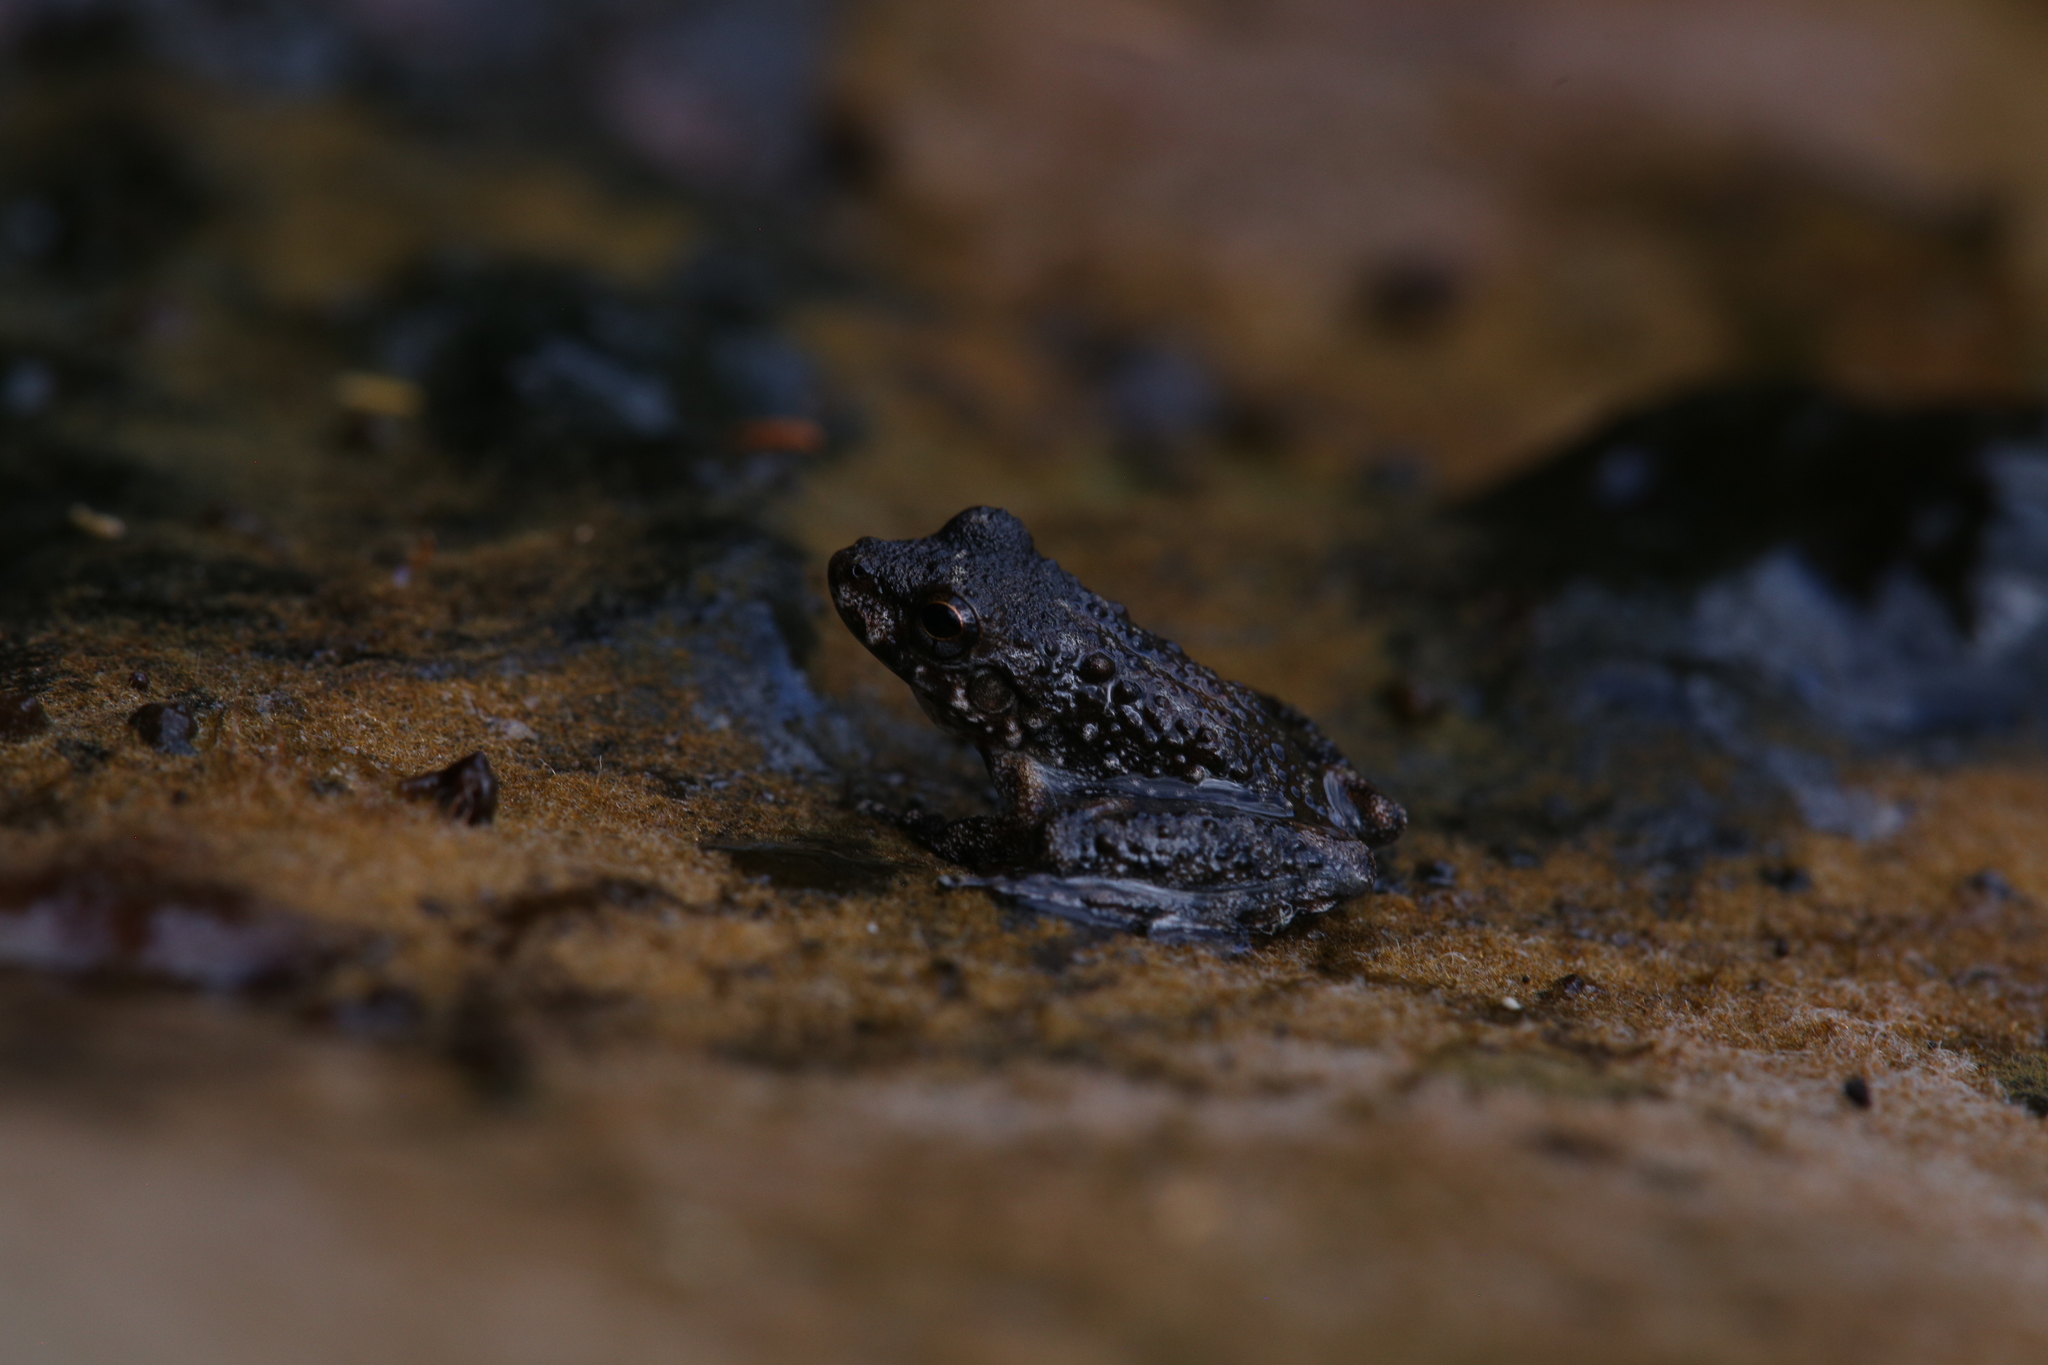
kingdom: Animalia
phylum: Chordata
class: Amphibia
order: Anura
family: Pelodryadidae
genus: Litoria
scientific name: Litoria meiriana
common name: Rockhole frog
